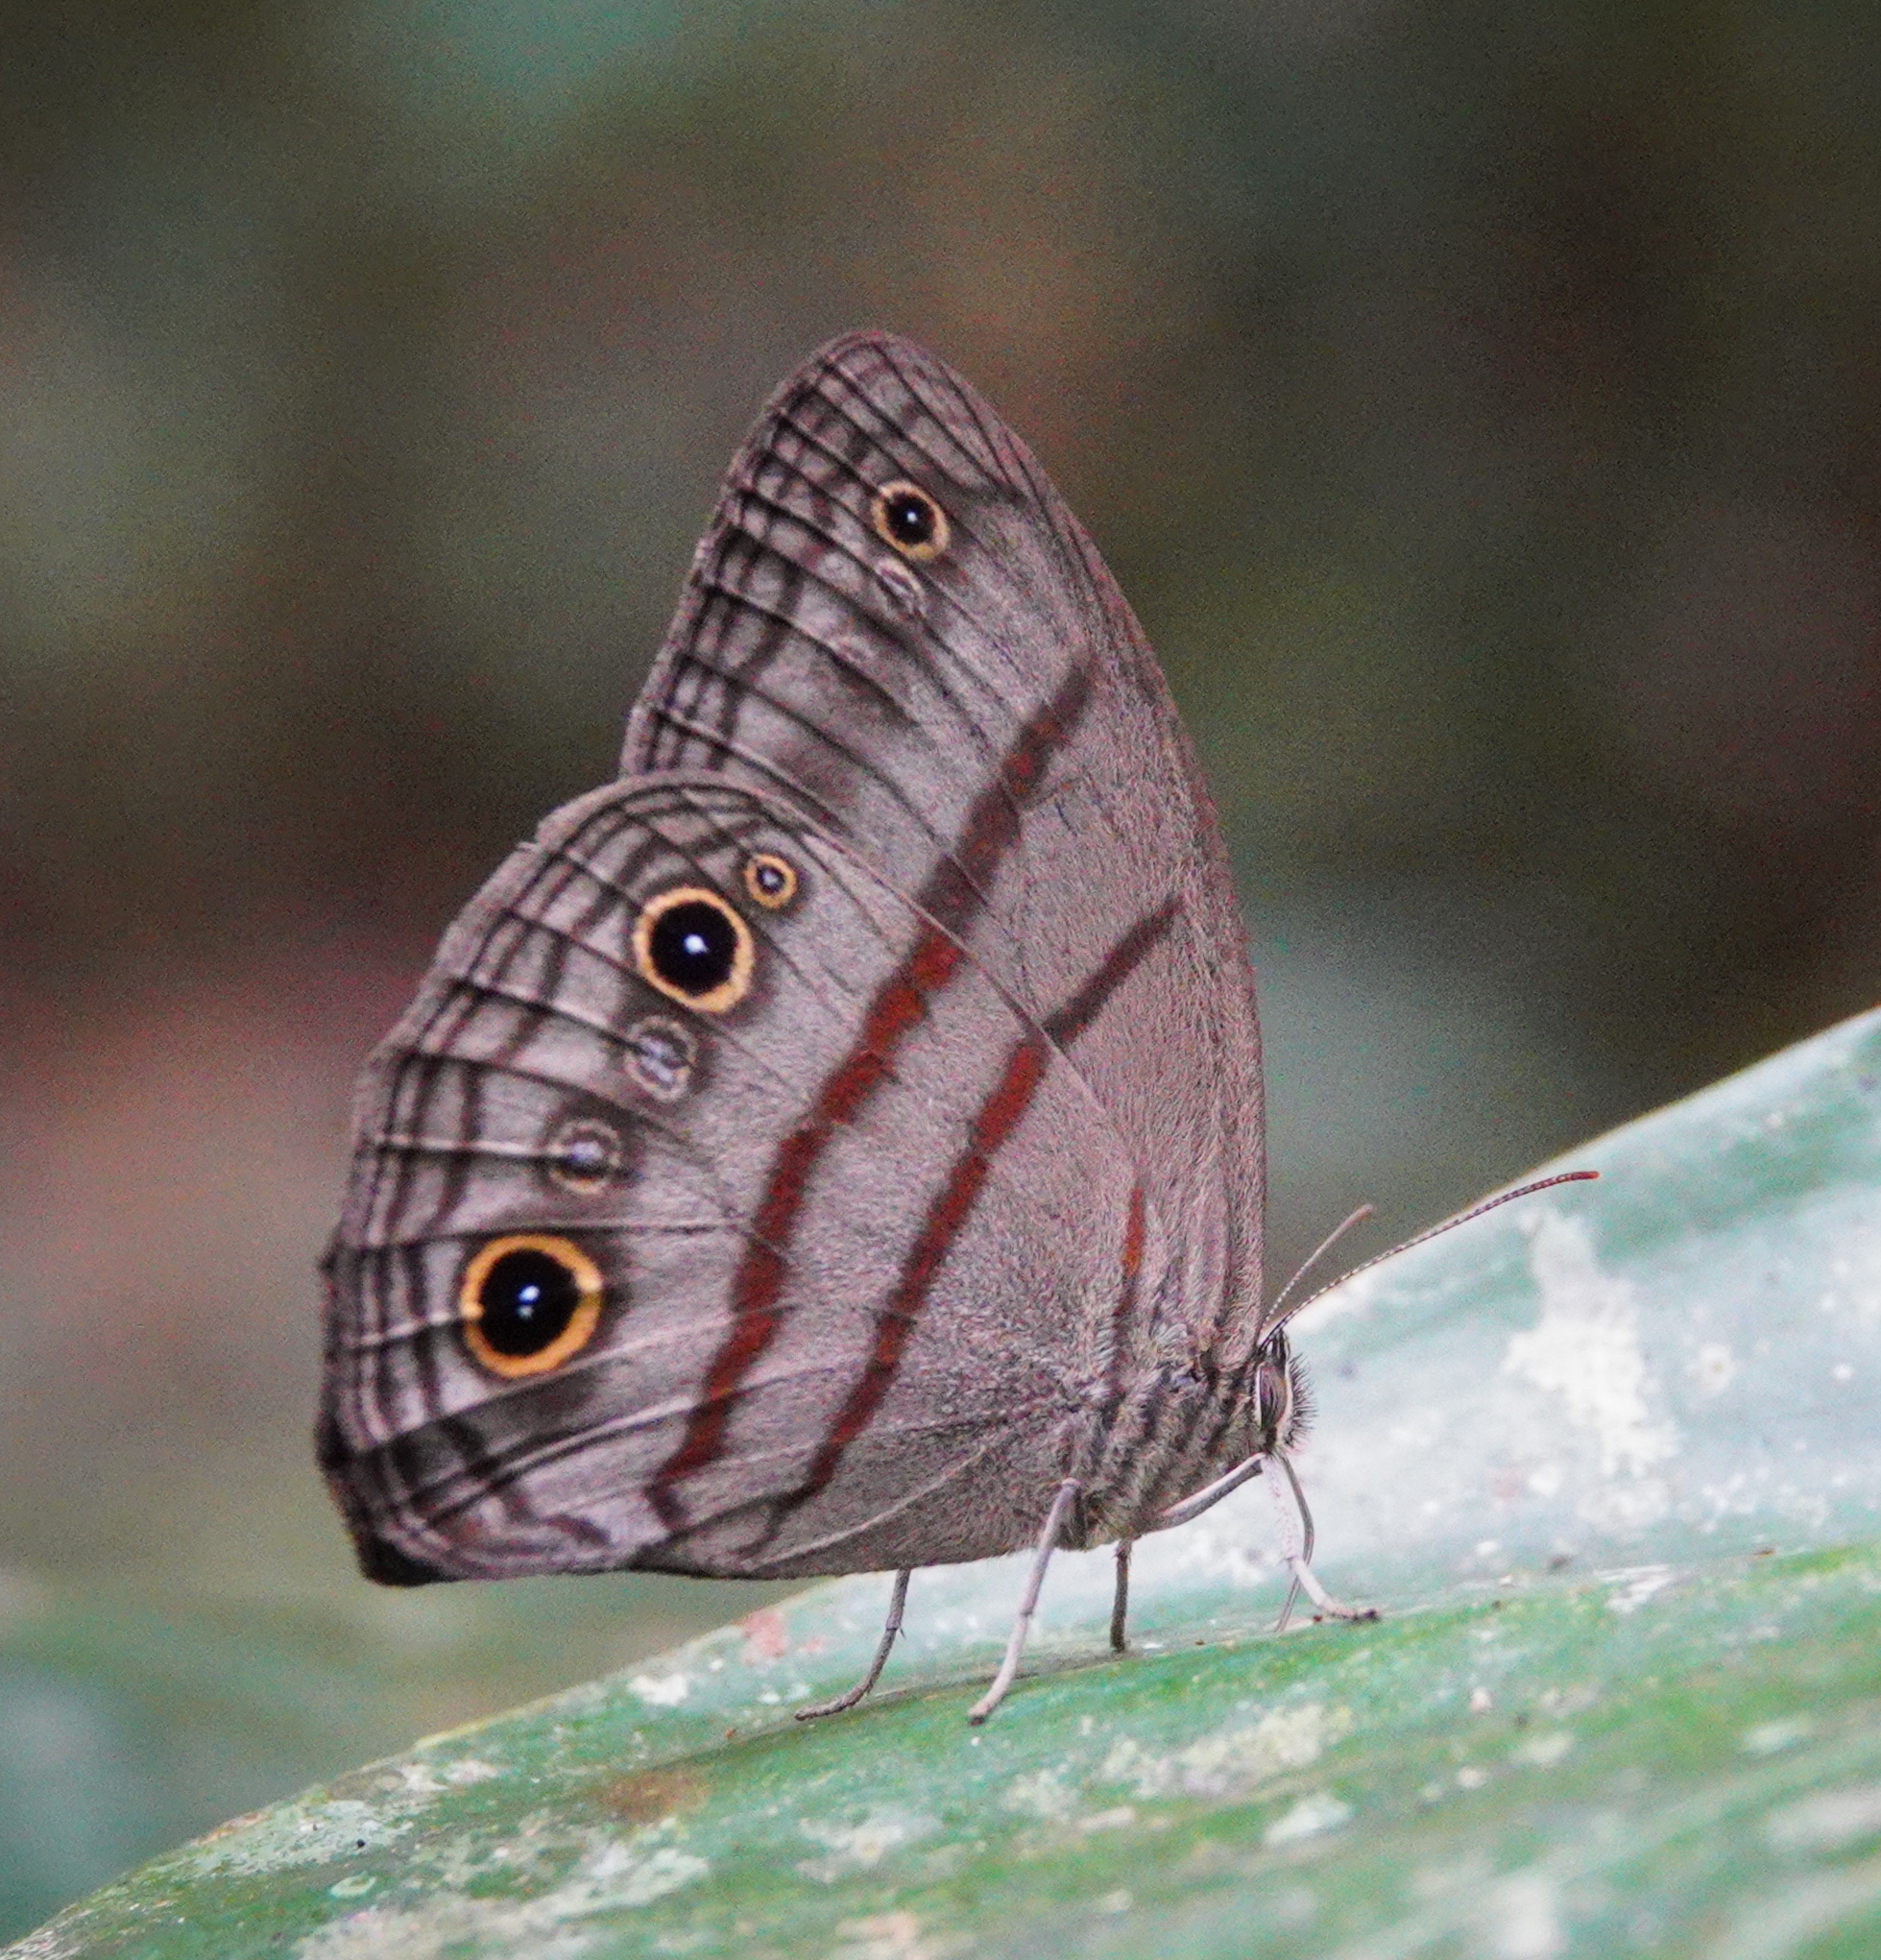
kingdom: Animalia
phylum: Arthropoda
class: Insecta
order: Lepidoptera
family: Nymphalidae
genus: Megeuptychia
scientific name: Megeuptychia antonoe
